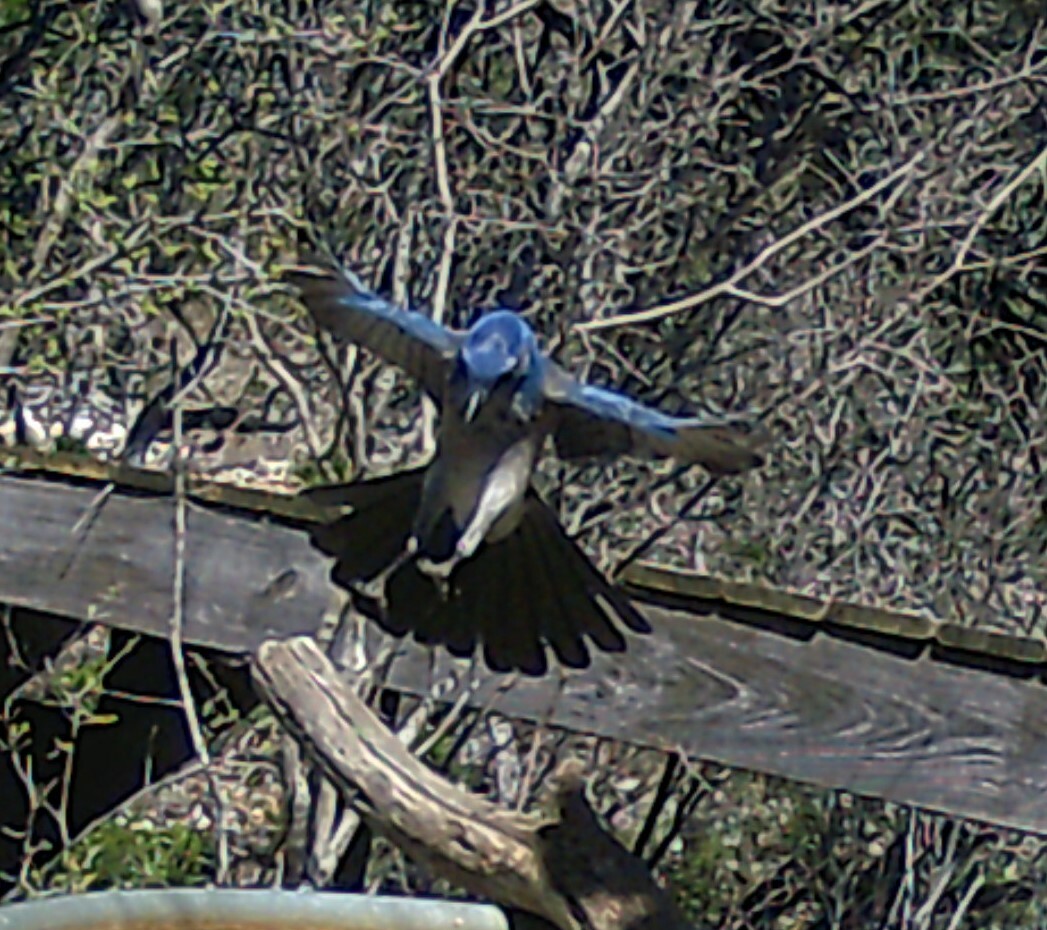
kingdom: Animalia
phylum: Chordata
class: Aves
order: Passeriformes
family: Corvidae
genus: Aphelocoma
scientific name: Aphelocoma woodhouseii
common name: Woodhouse's scrub-jay
